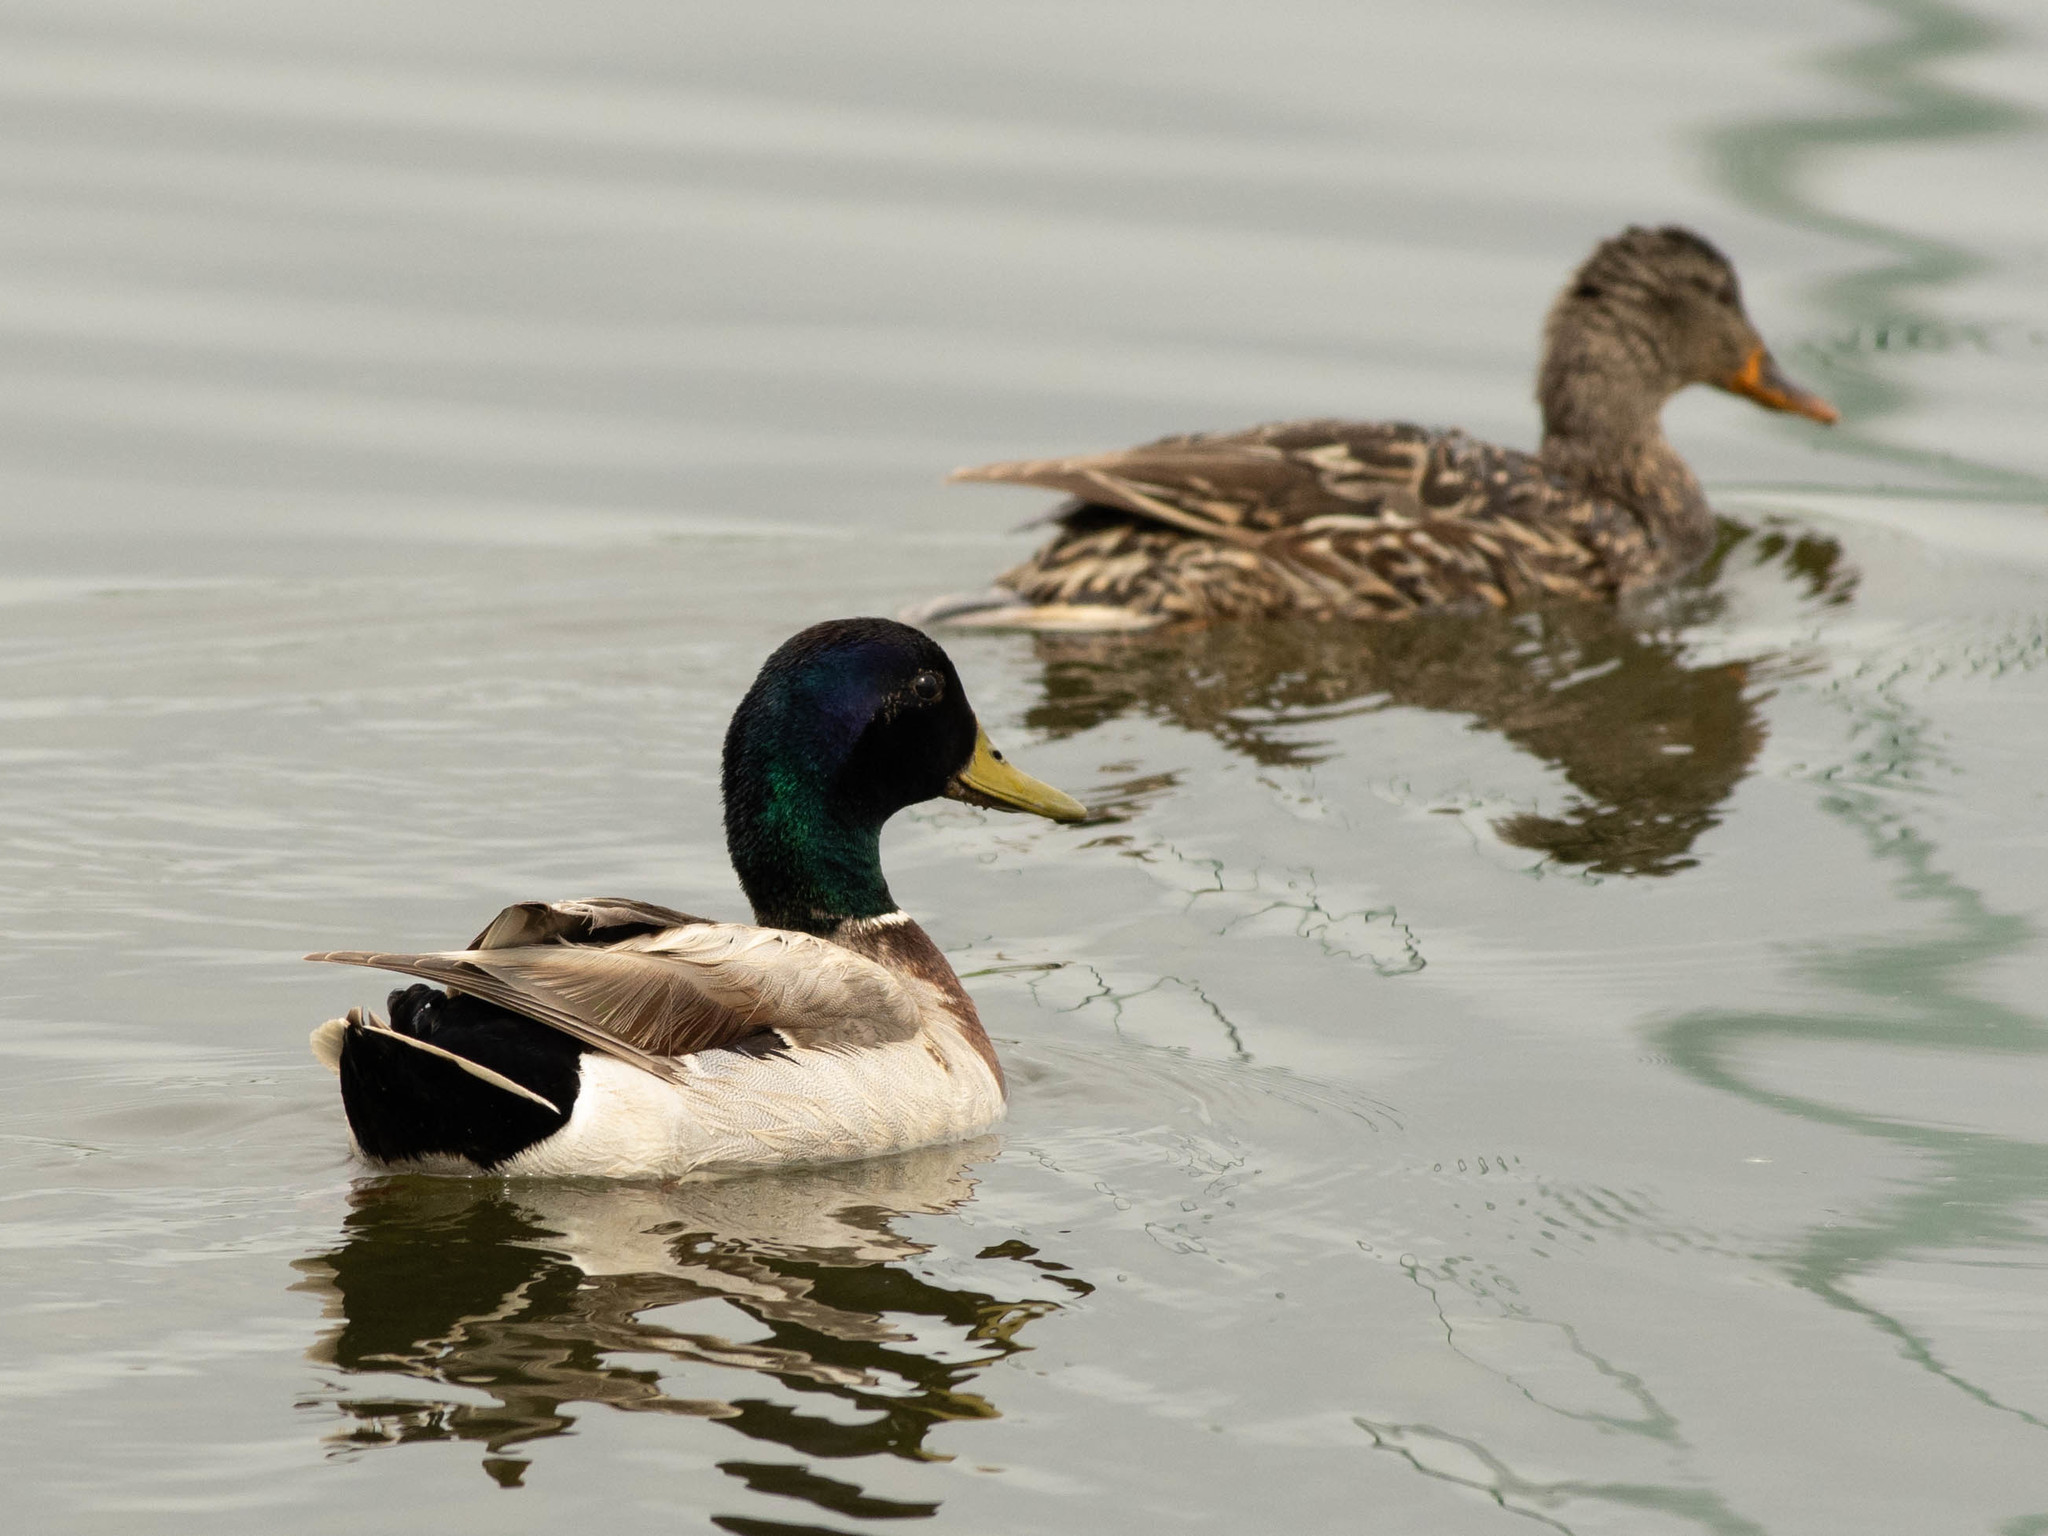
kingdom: Animalia
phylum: Chordata
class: Aves
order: Anseriformes
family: Anatidae
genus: Anas
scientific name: Anas platyrhynchos
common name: Mallard
